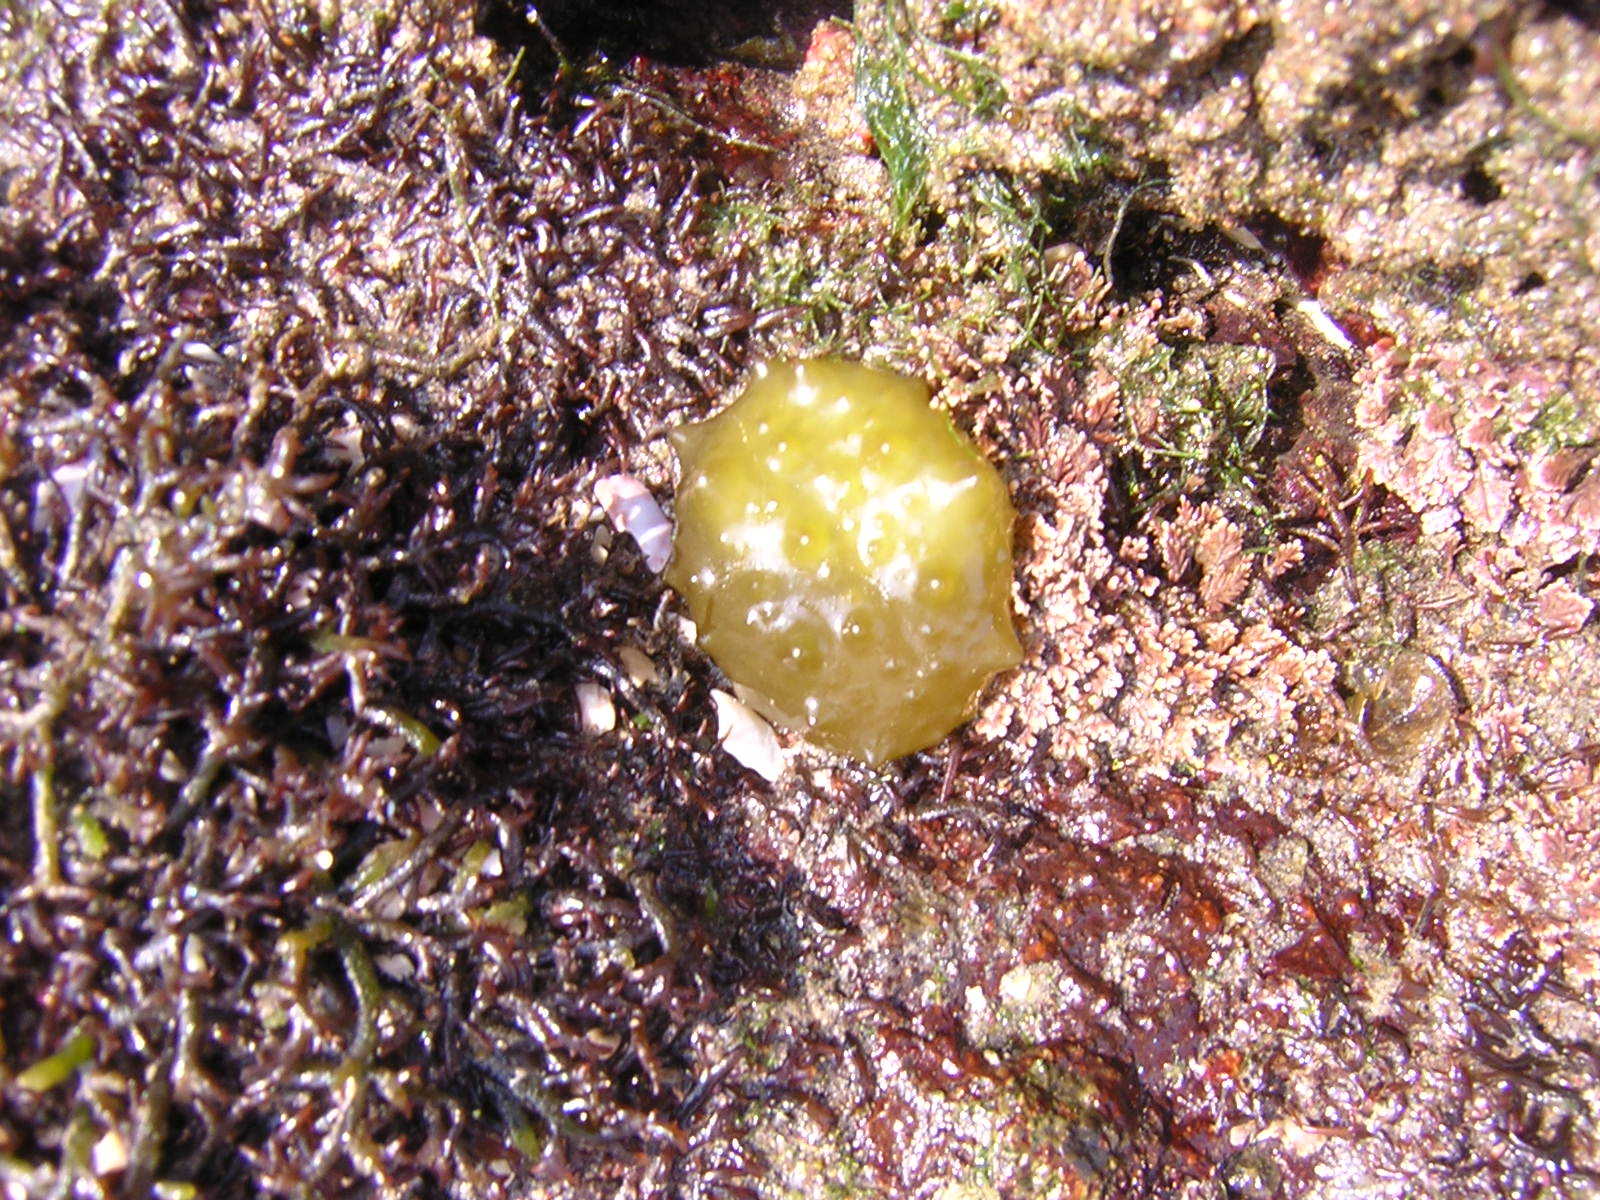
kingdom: Chromista
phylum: Ochrophyta
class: Phaeophyceae
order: Scytosiphonales
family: Scytosiphonaceae
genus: Colpomenia
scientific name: Colpomenia
